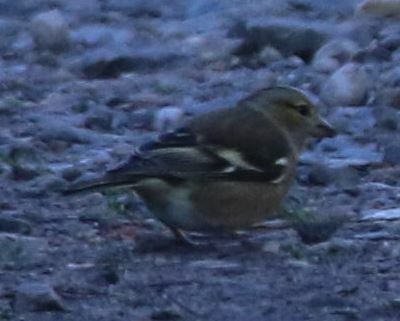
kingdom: Animalia
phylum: Chordata
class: Aves
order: Passeriformes
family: Fringillidae
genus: Fringilla
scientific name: Fringilla coelebs
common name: Common chaffinch
